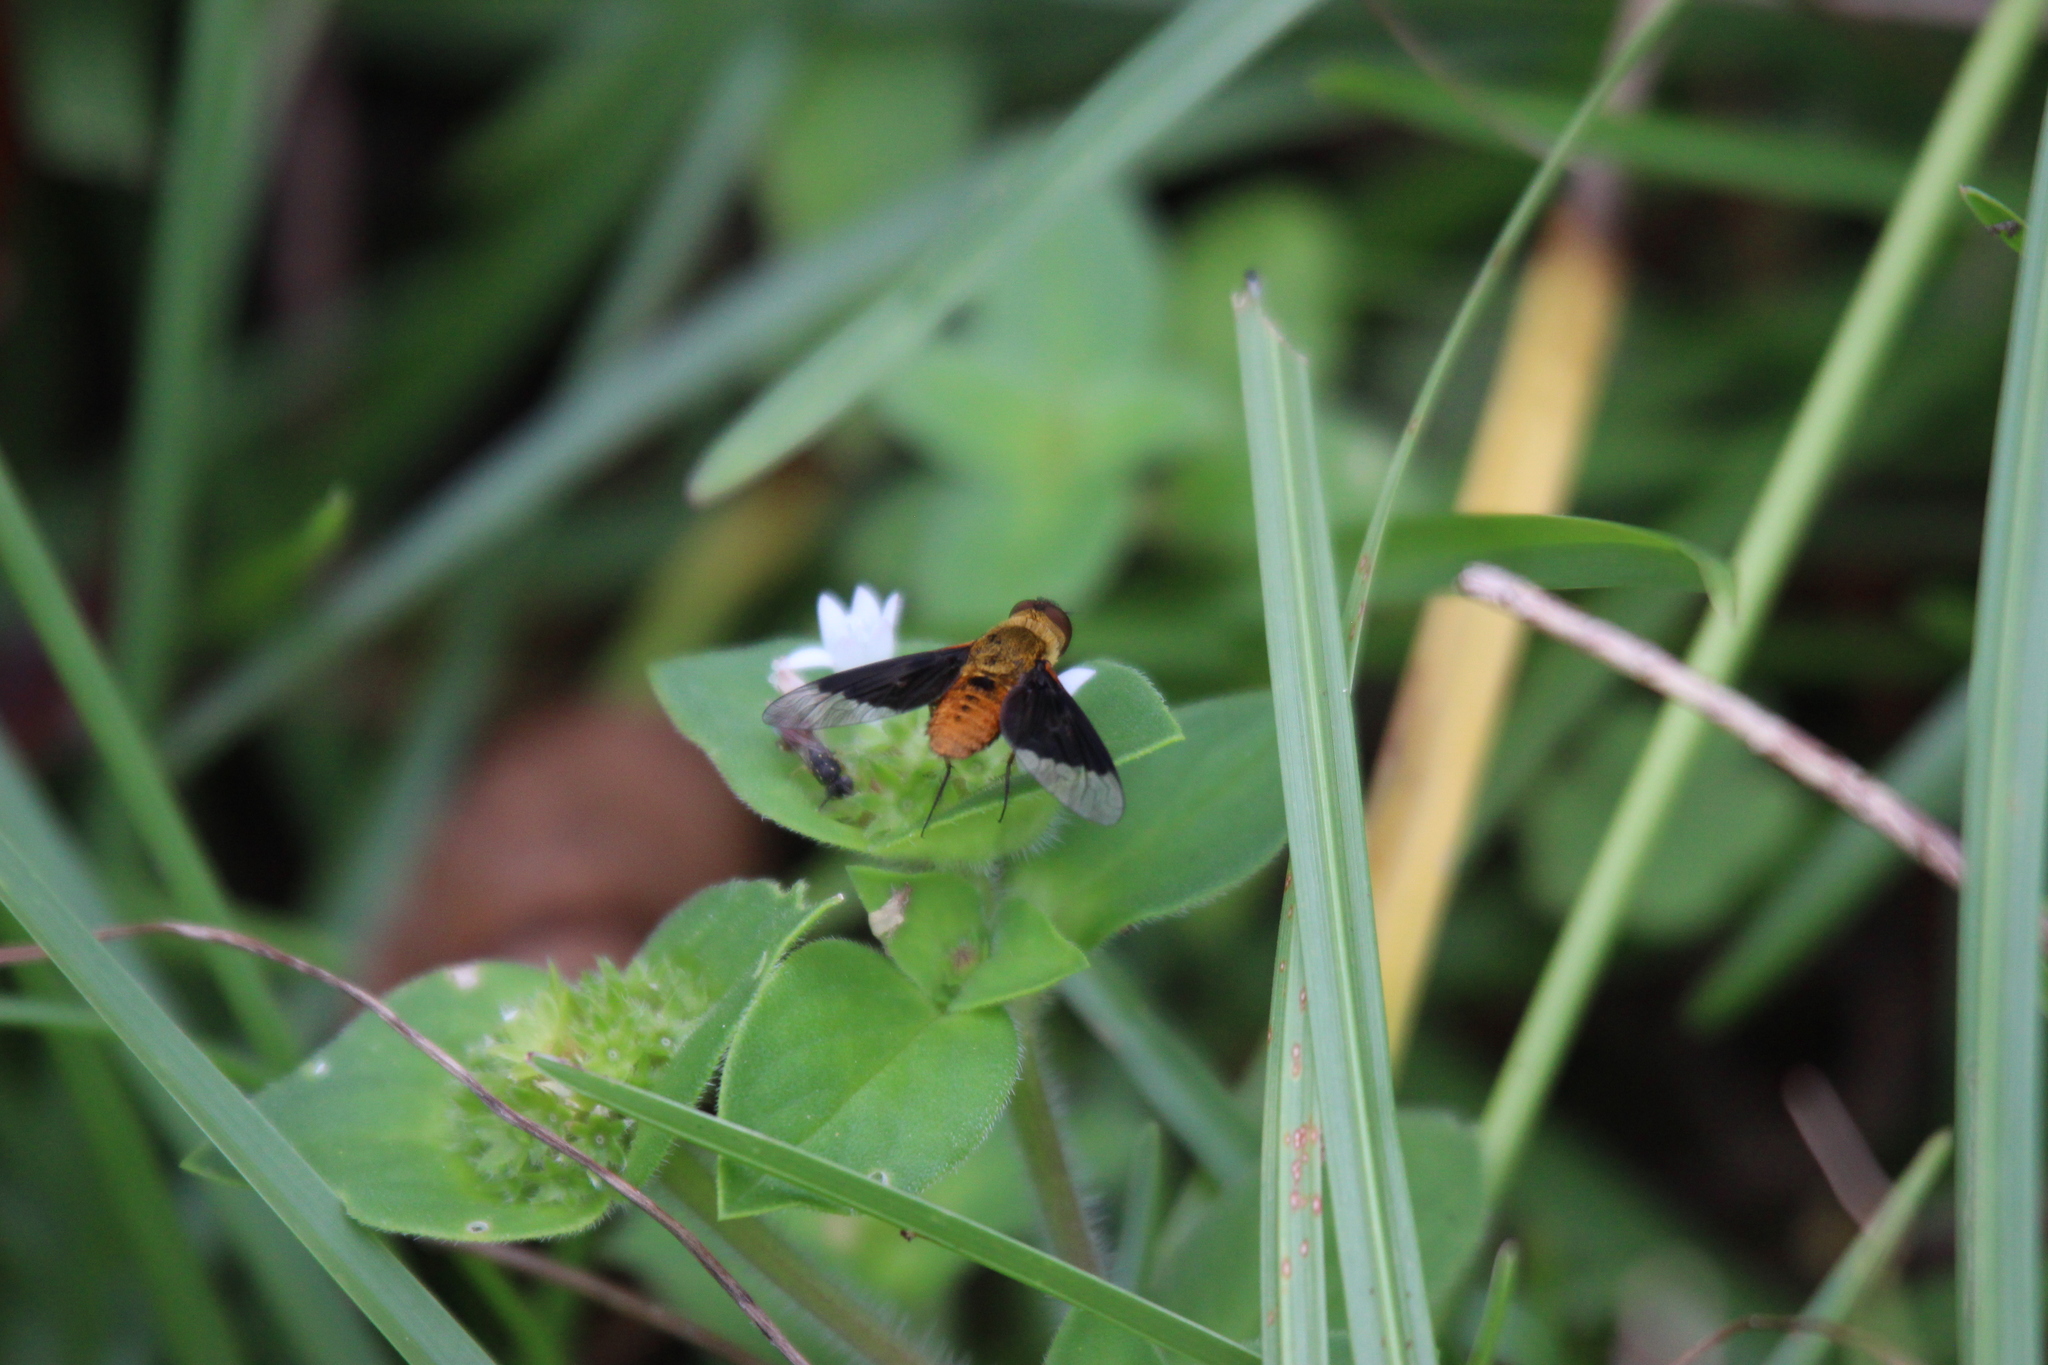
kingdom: Animalia
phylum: Arthropoda
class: Insecta
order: Diptera
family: Bombyliidae
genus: Chrysanthrax
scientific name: Chrysanthrax cypris
